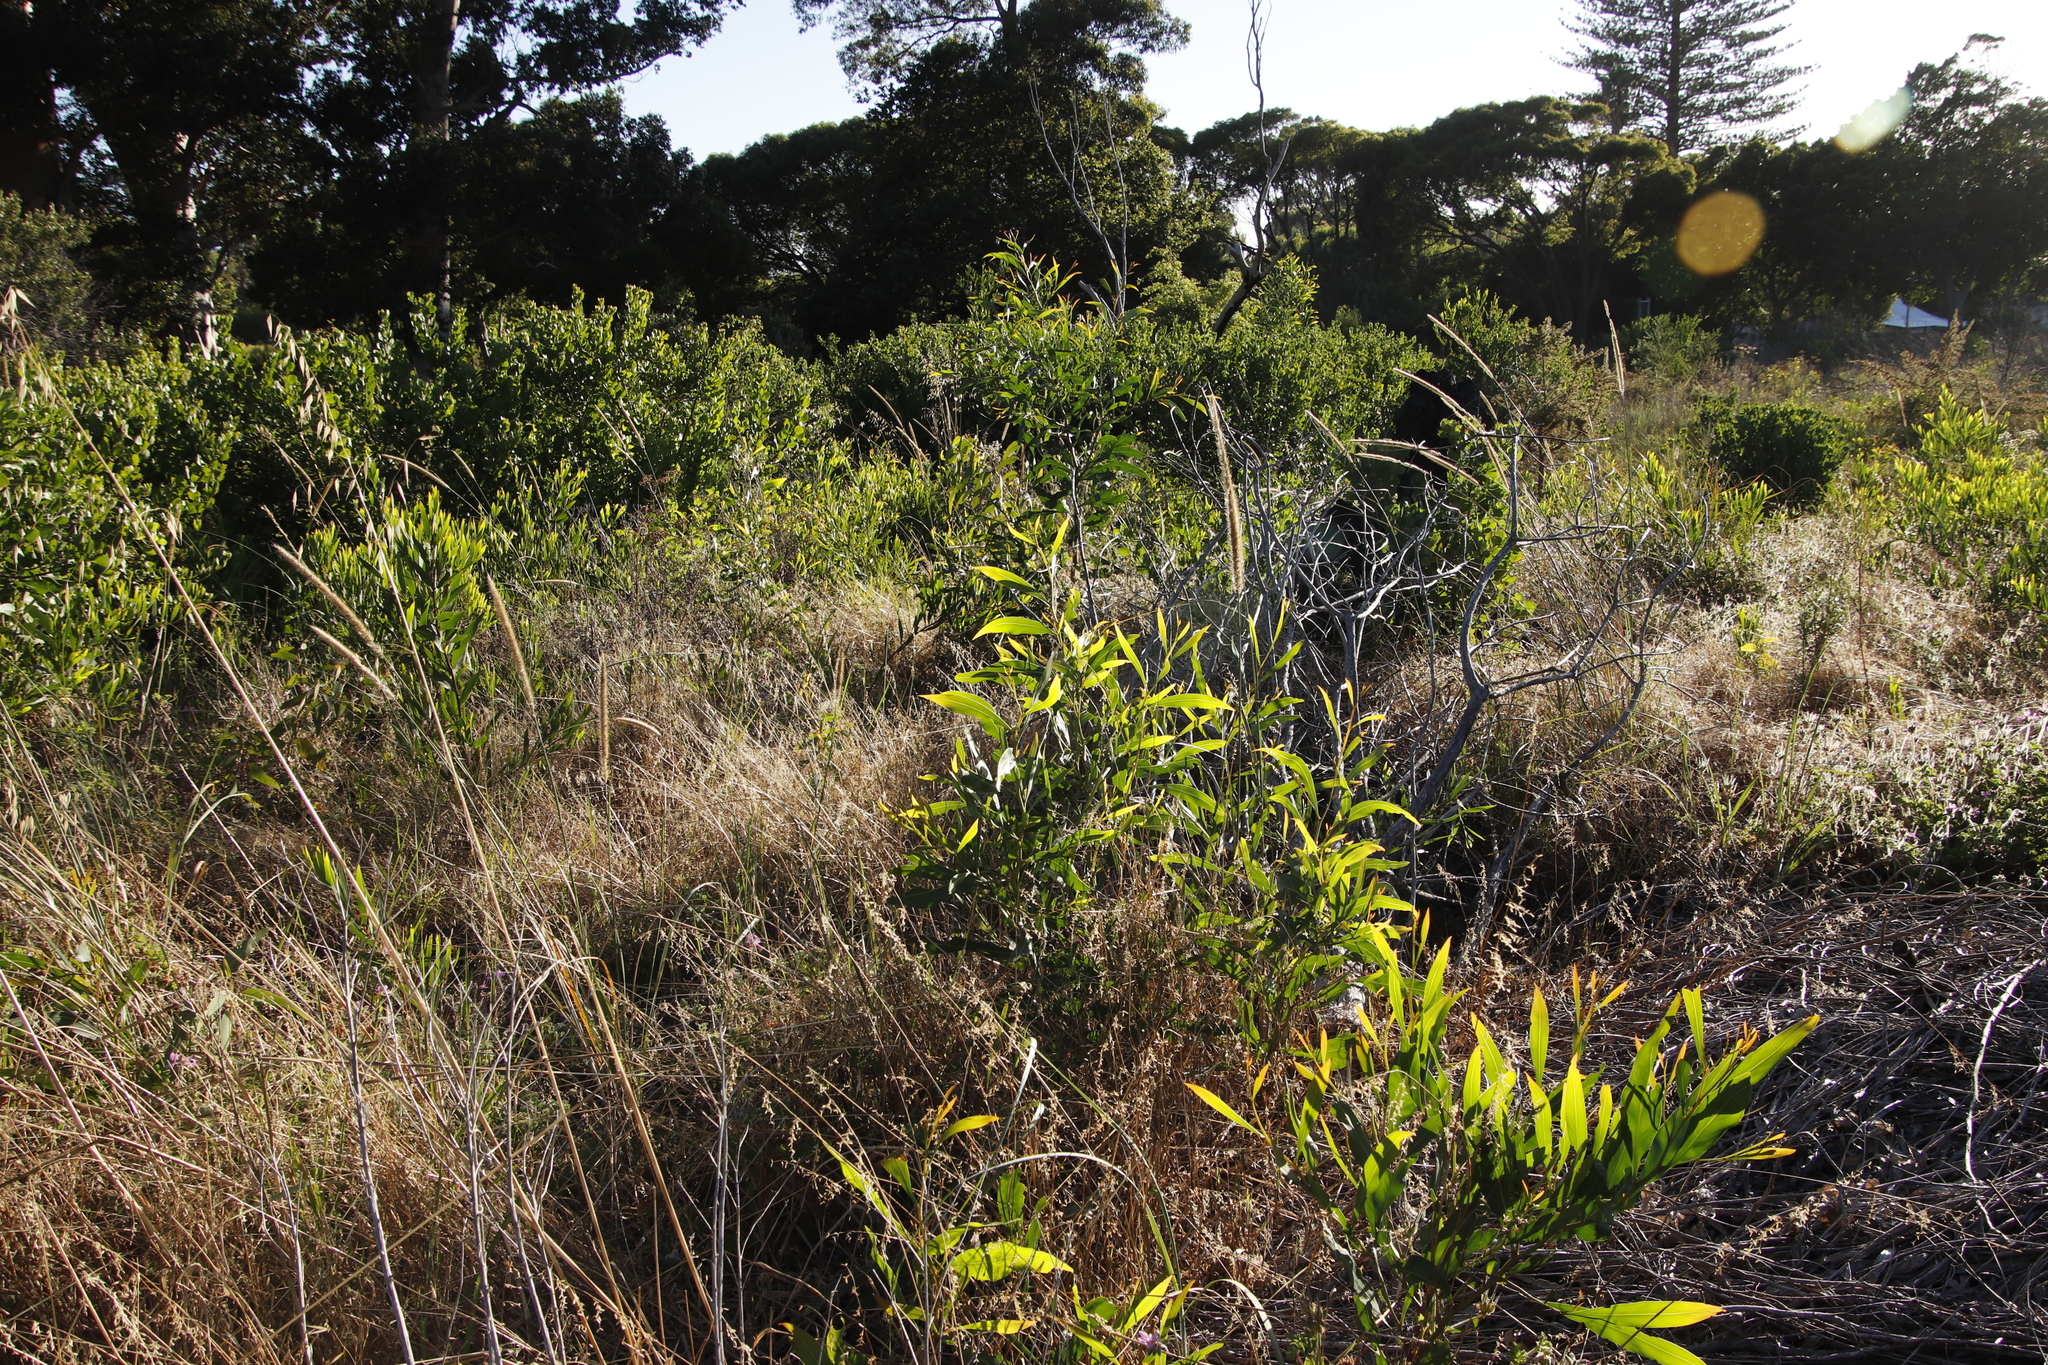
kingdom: Plantae
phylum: Tracheophyta
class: Magnoliopsida
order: Fabales
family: Fabaceae
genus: Acacia
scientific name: Acacia saligna
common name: Orange wattle
